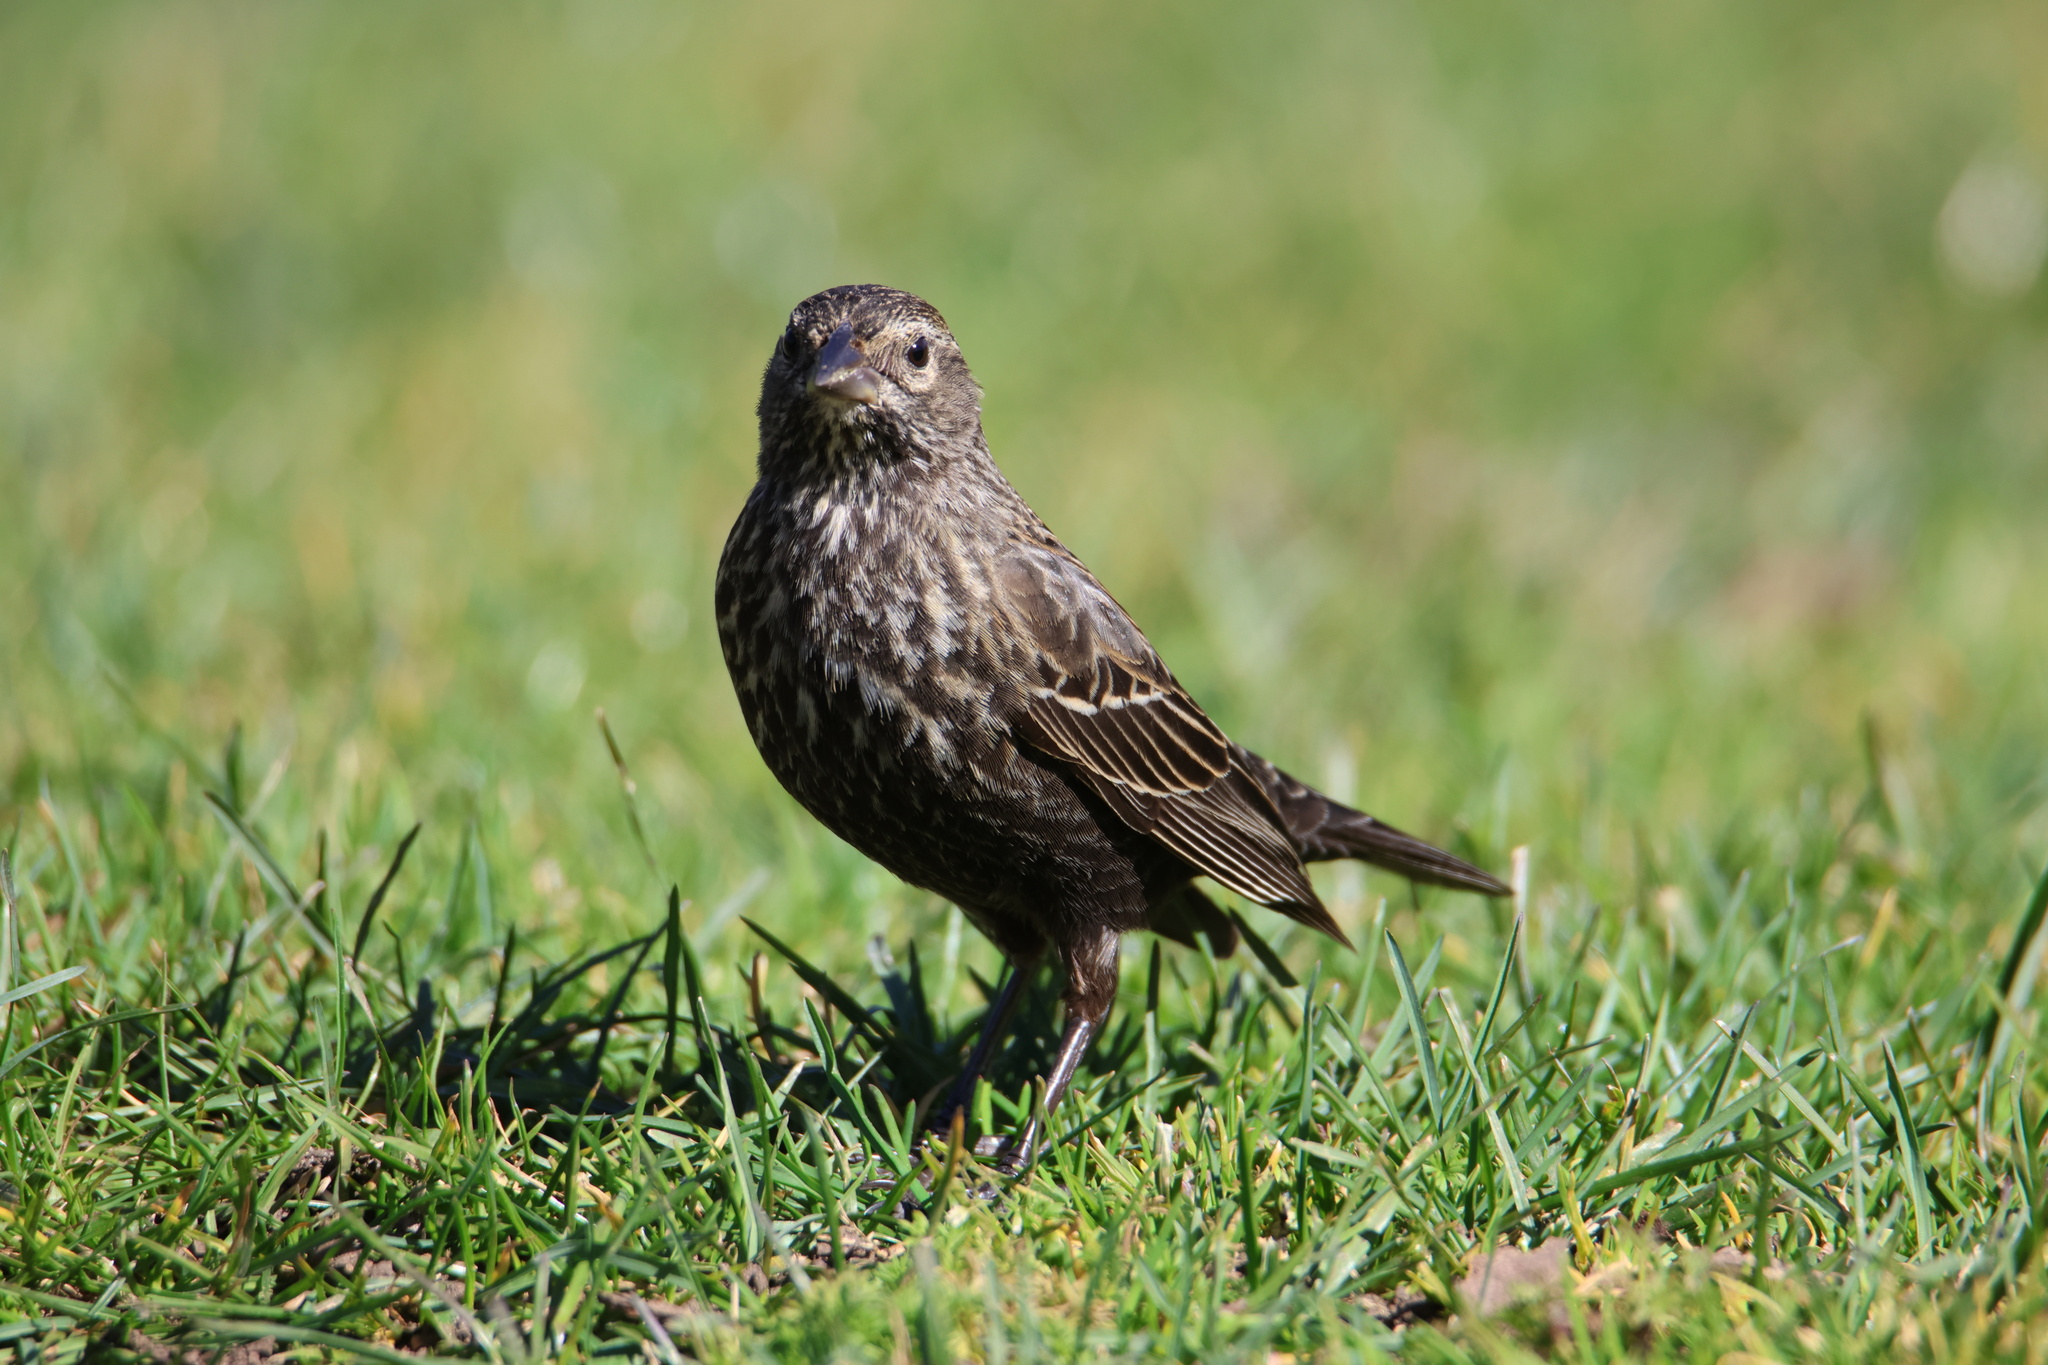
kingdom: Animalia
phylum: Chordata
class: Aves
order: Passeriformes
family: Icteridae
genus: Agelaius
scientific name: Agelaius phoeniceus
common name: Red-winged blackbird
